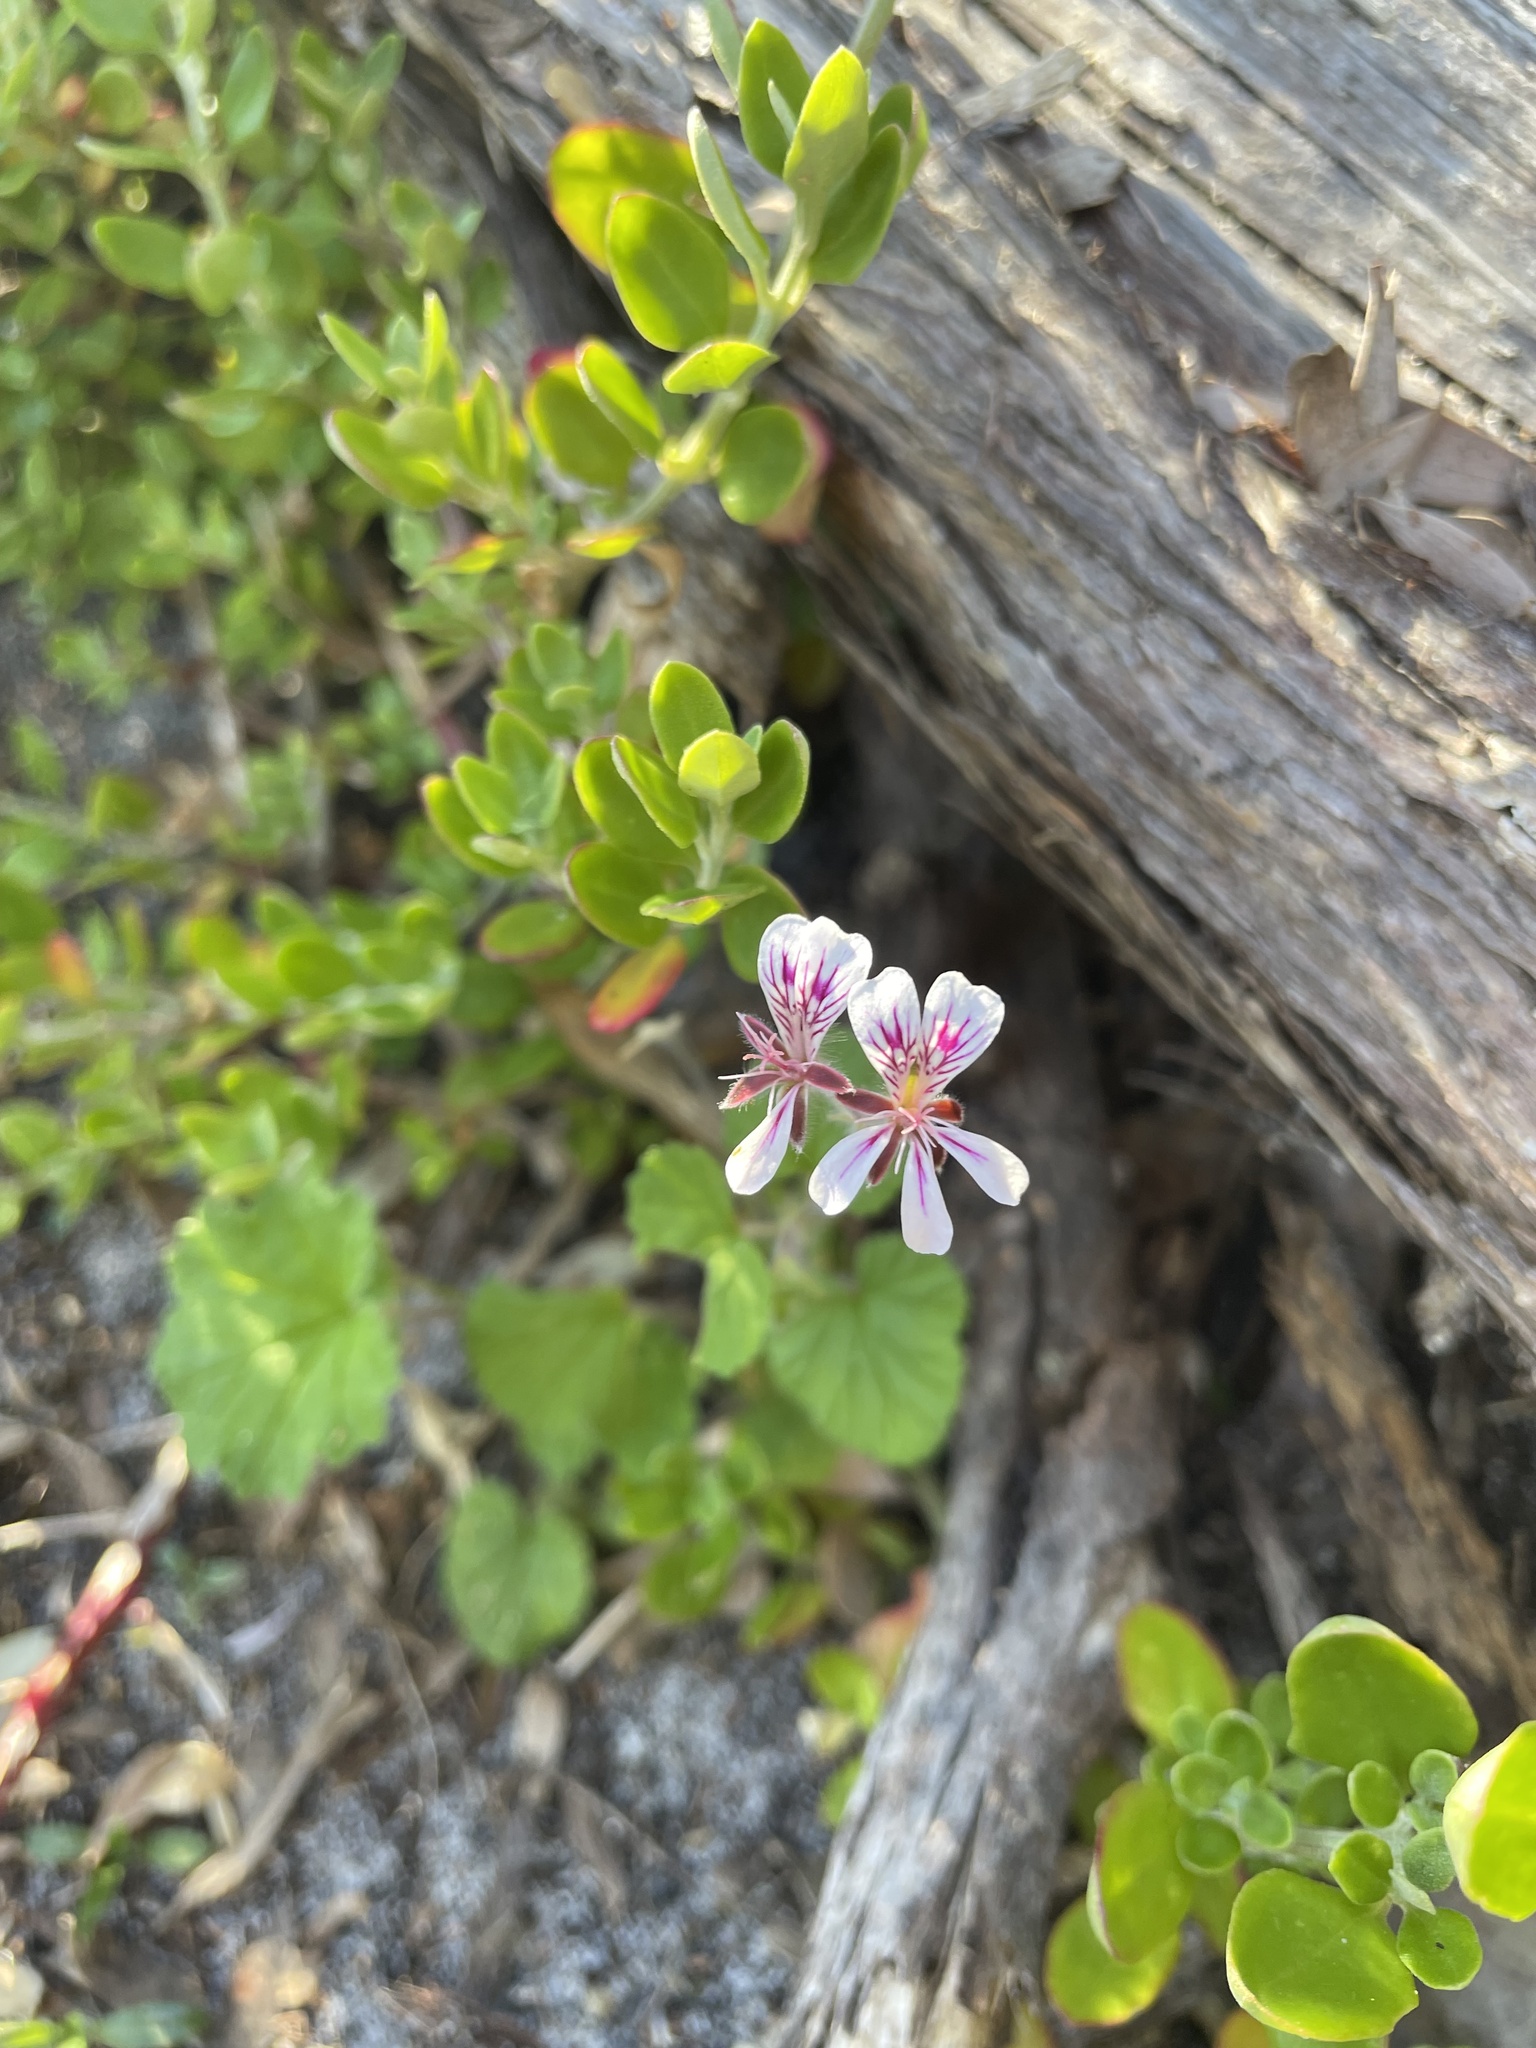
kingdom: Plantae
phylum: Tracheophyta
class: Magnoliopsida
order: Geraniales
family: Geraniaceae
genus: Pelargonium
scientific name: Pelargonium australe
